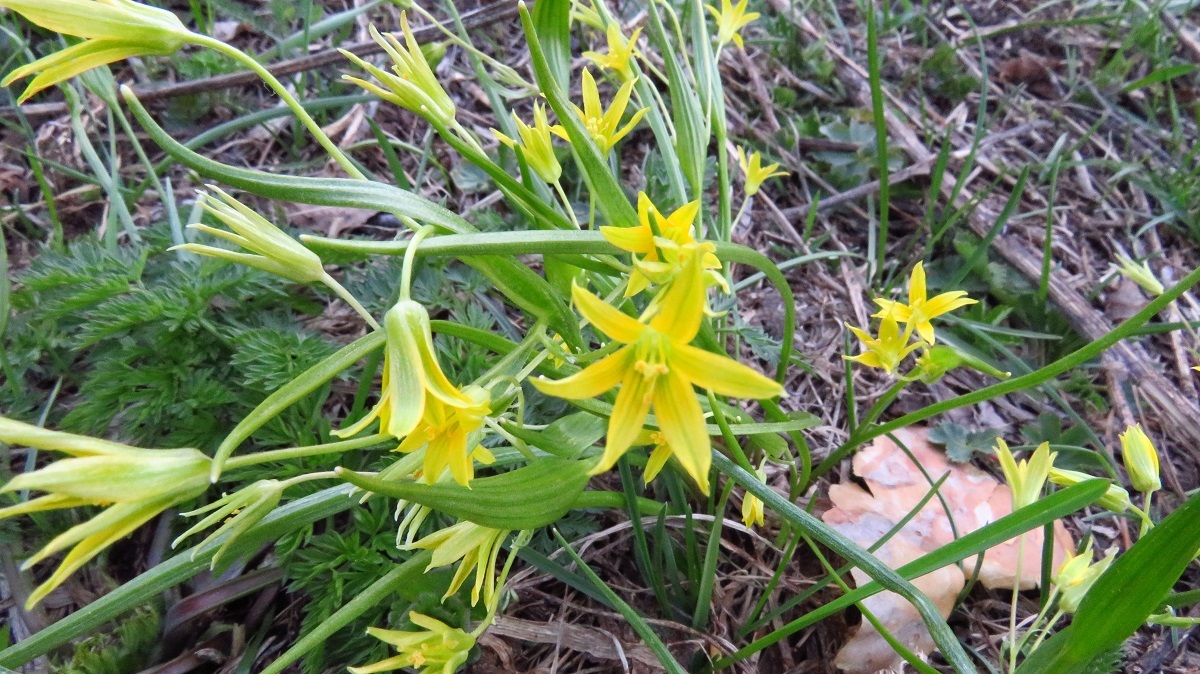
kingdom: Plantae
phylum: Tracheophyta
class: Liliopsida
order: Liliales
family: Liliaceae
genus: Gagea
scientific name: Gagea minima
